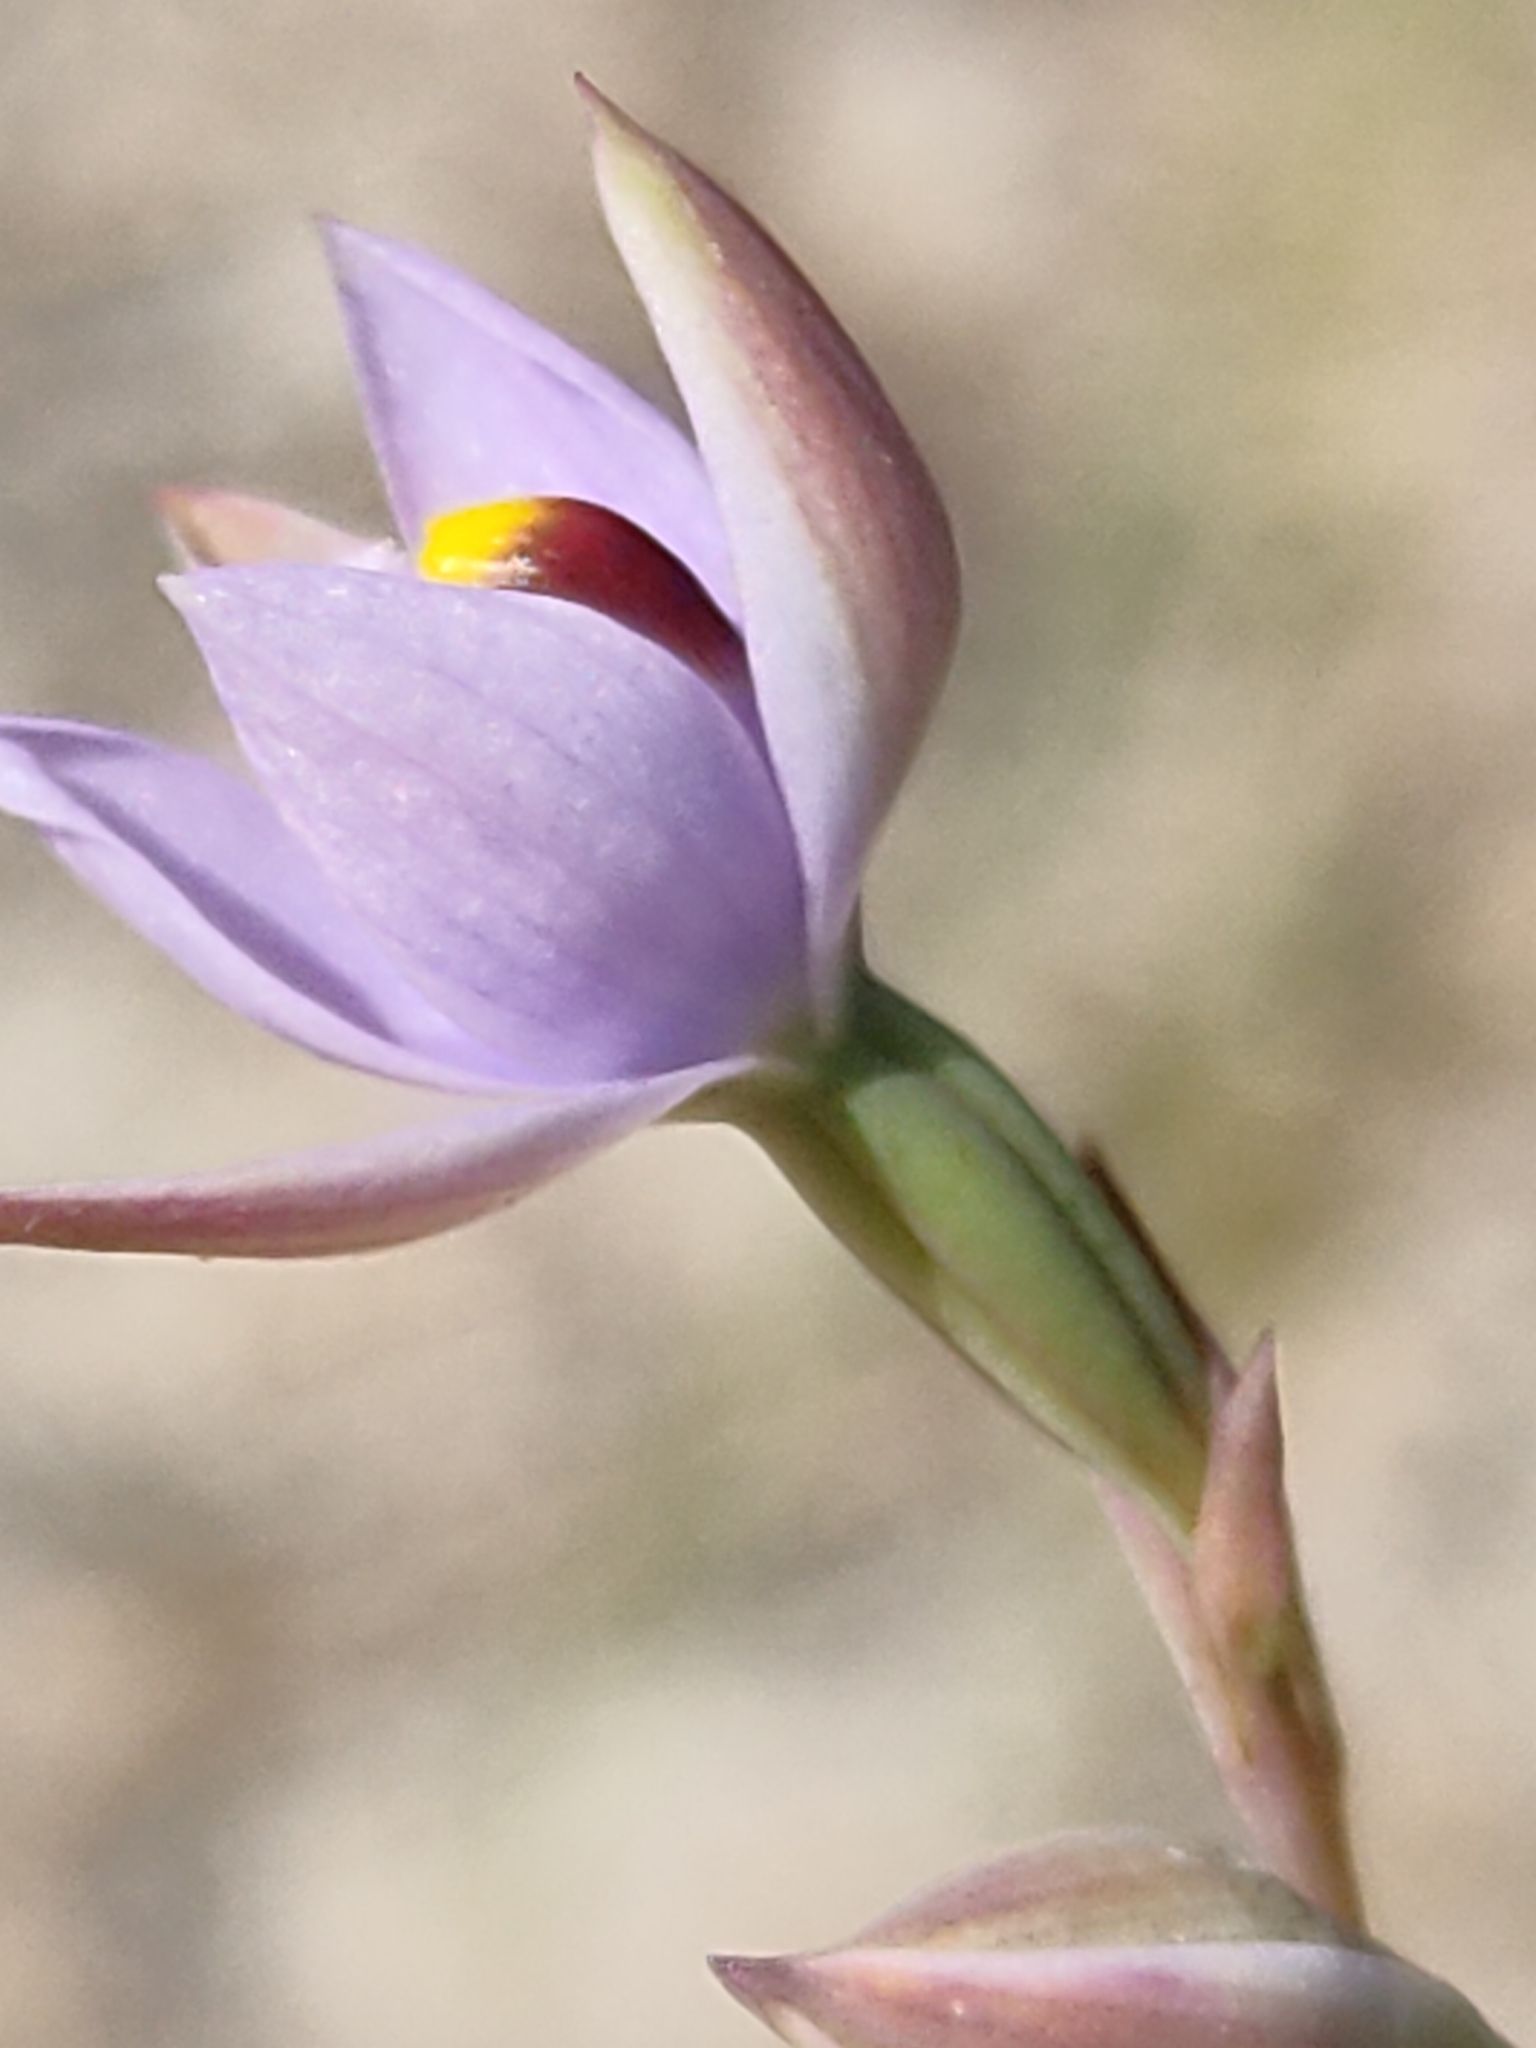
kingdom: Plantae
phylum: Tracheophyta
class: Liliopsida
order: Asparagales
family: Orchidaceae
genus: Thelymitra
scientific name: Thelymitra malvina
